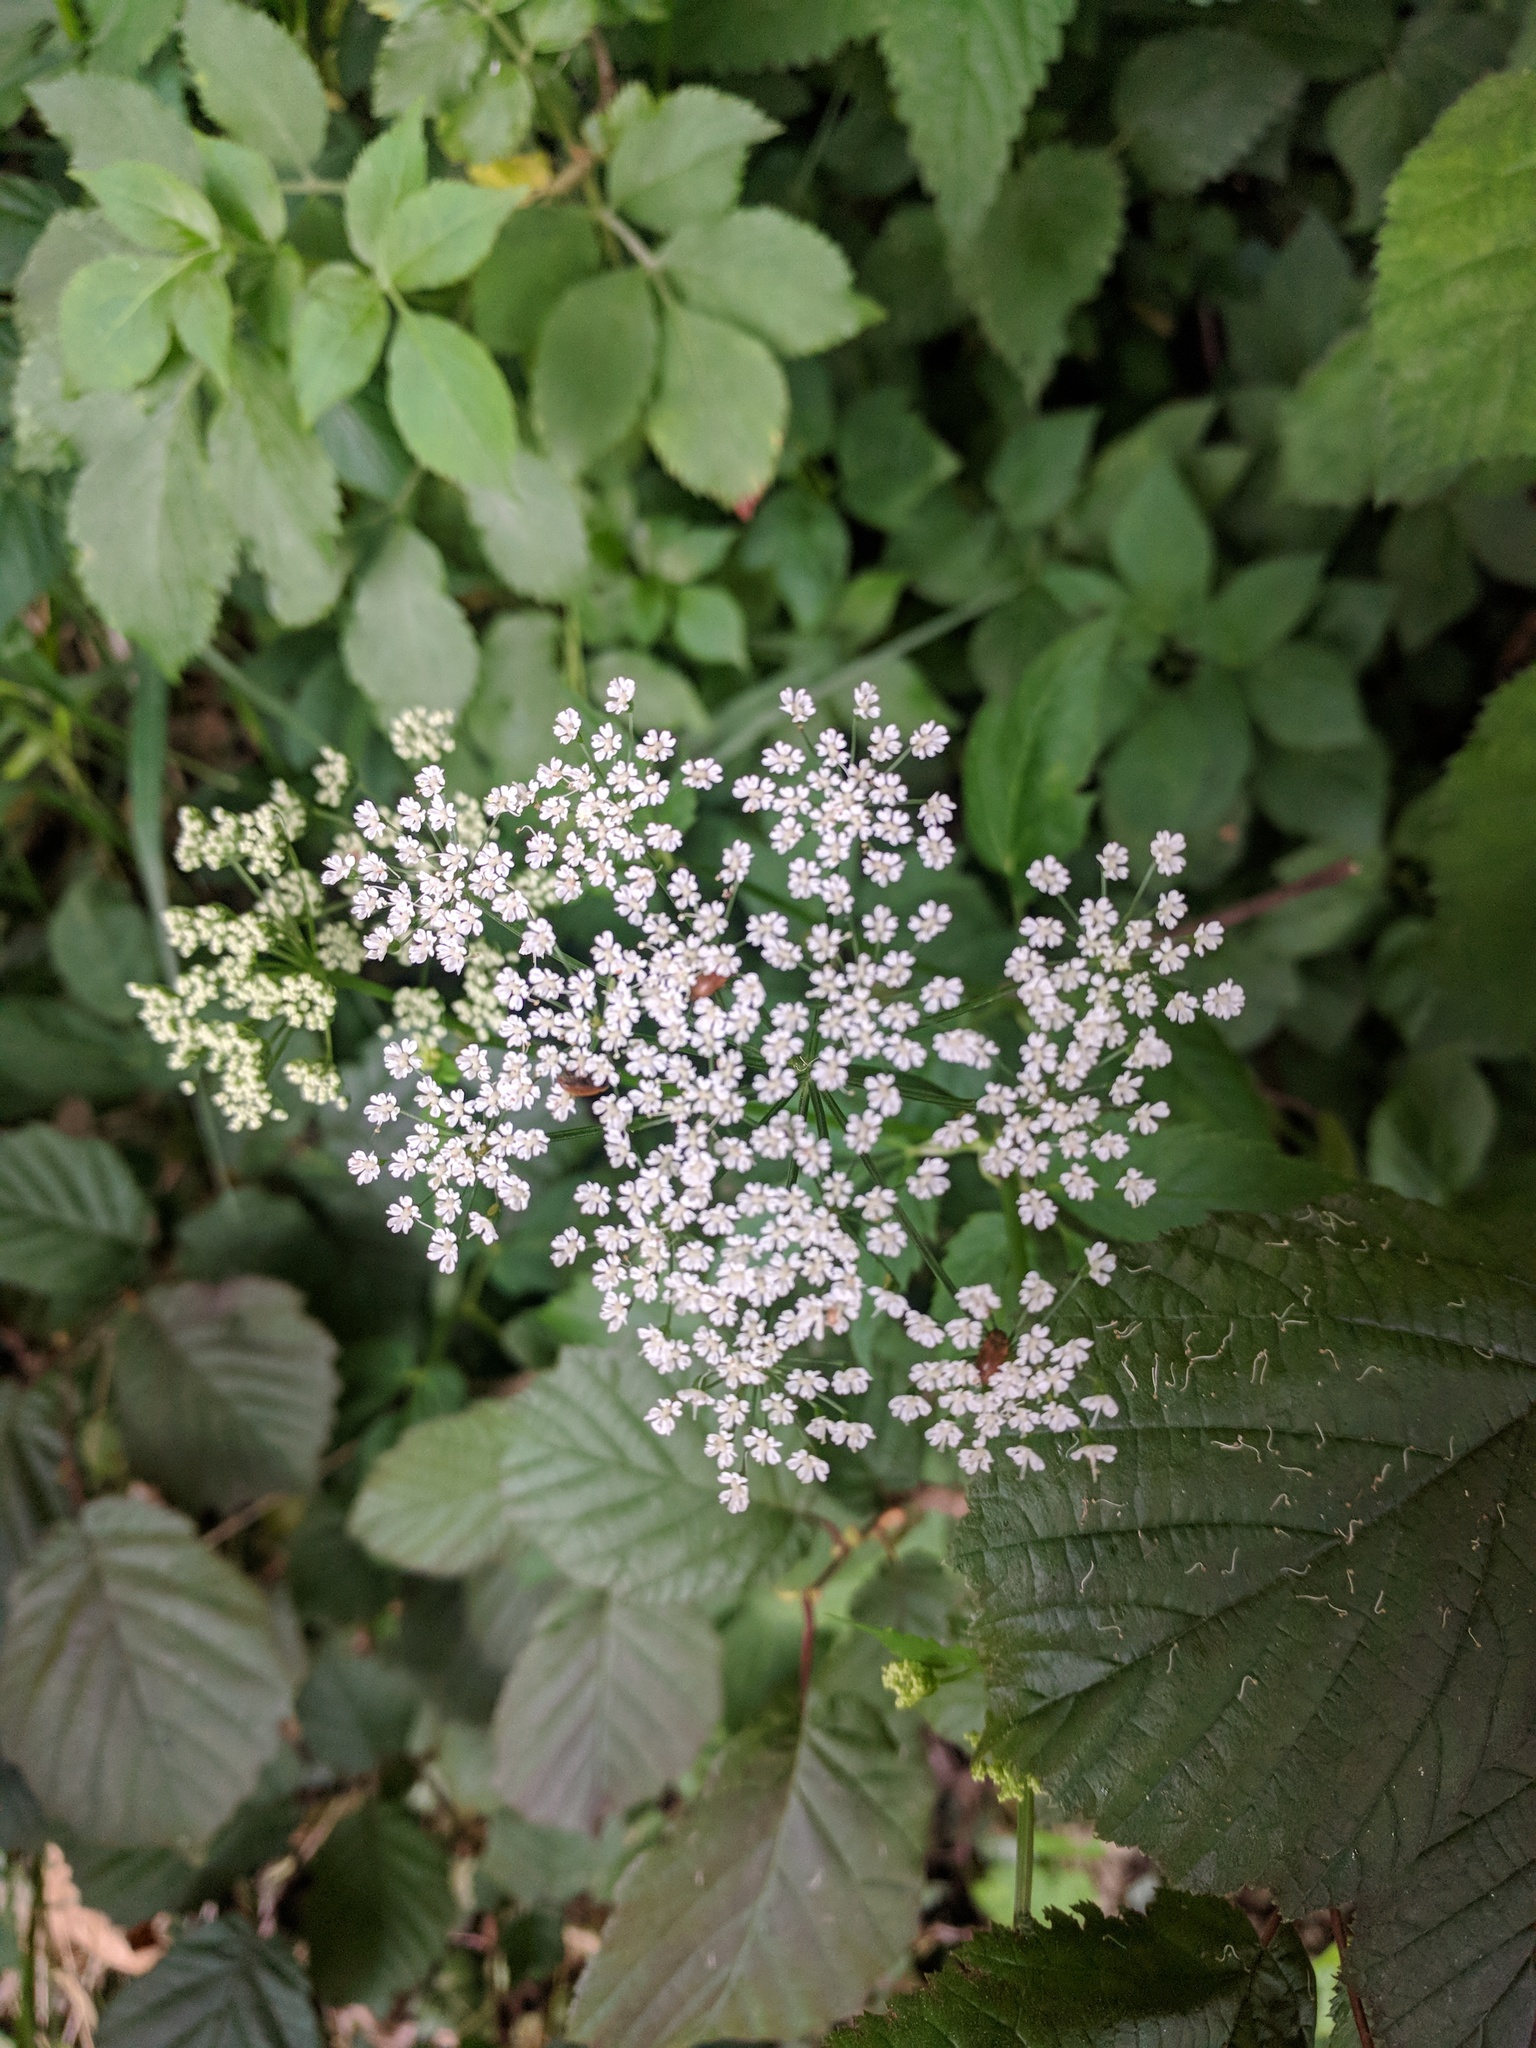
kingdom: Plantae
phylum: Tracheophyta
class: Magnoliopsida
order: Apiales
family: Apiaceae
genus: Aegopodium
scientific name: Aegopodium podagraria
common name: Ground-elder
